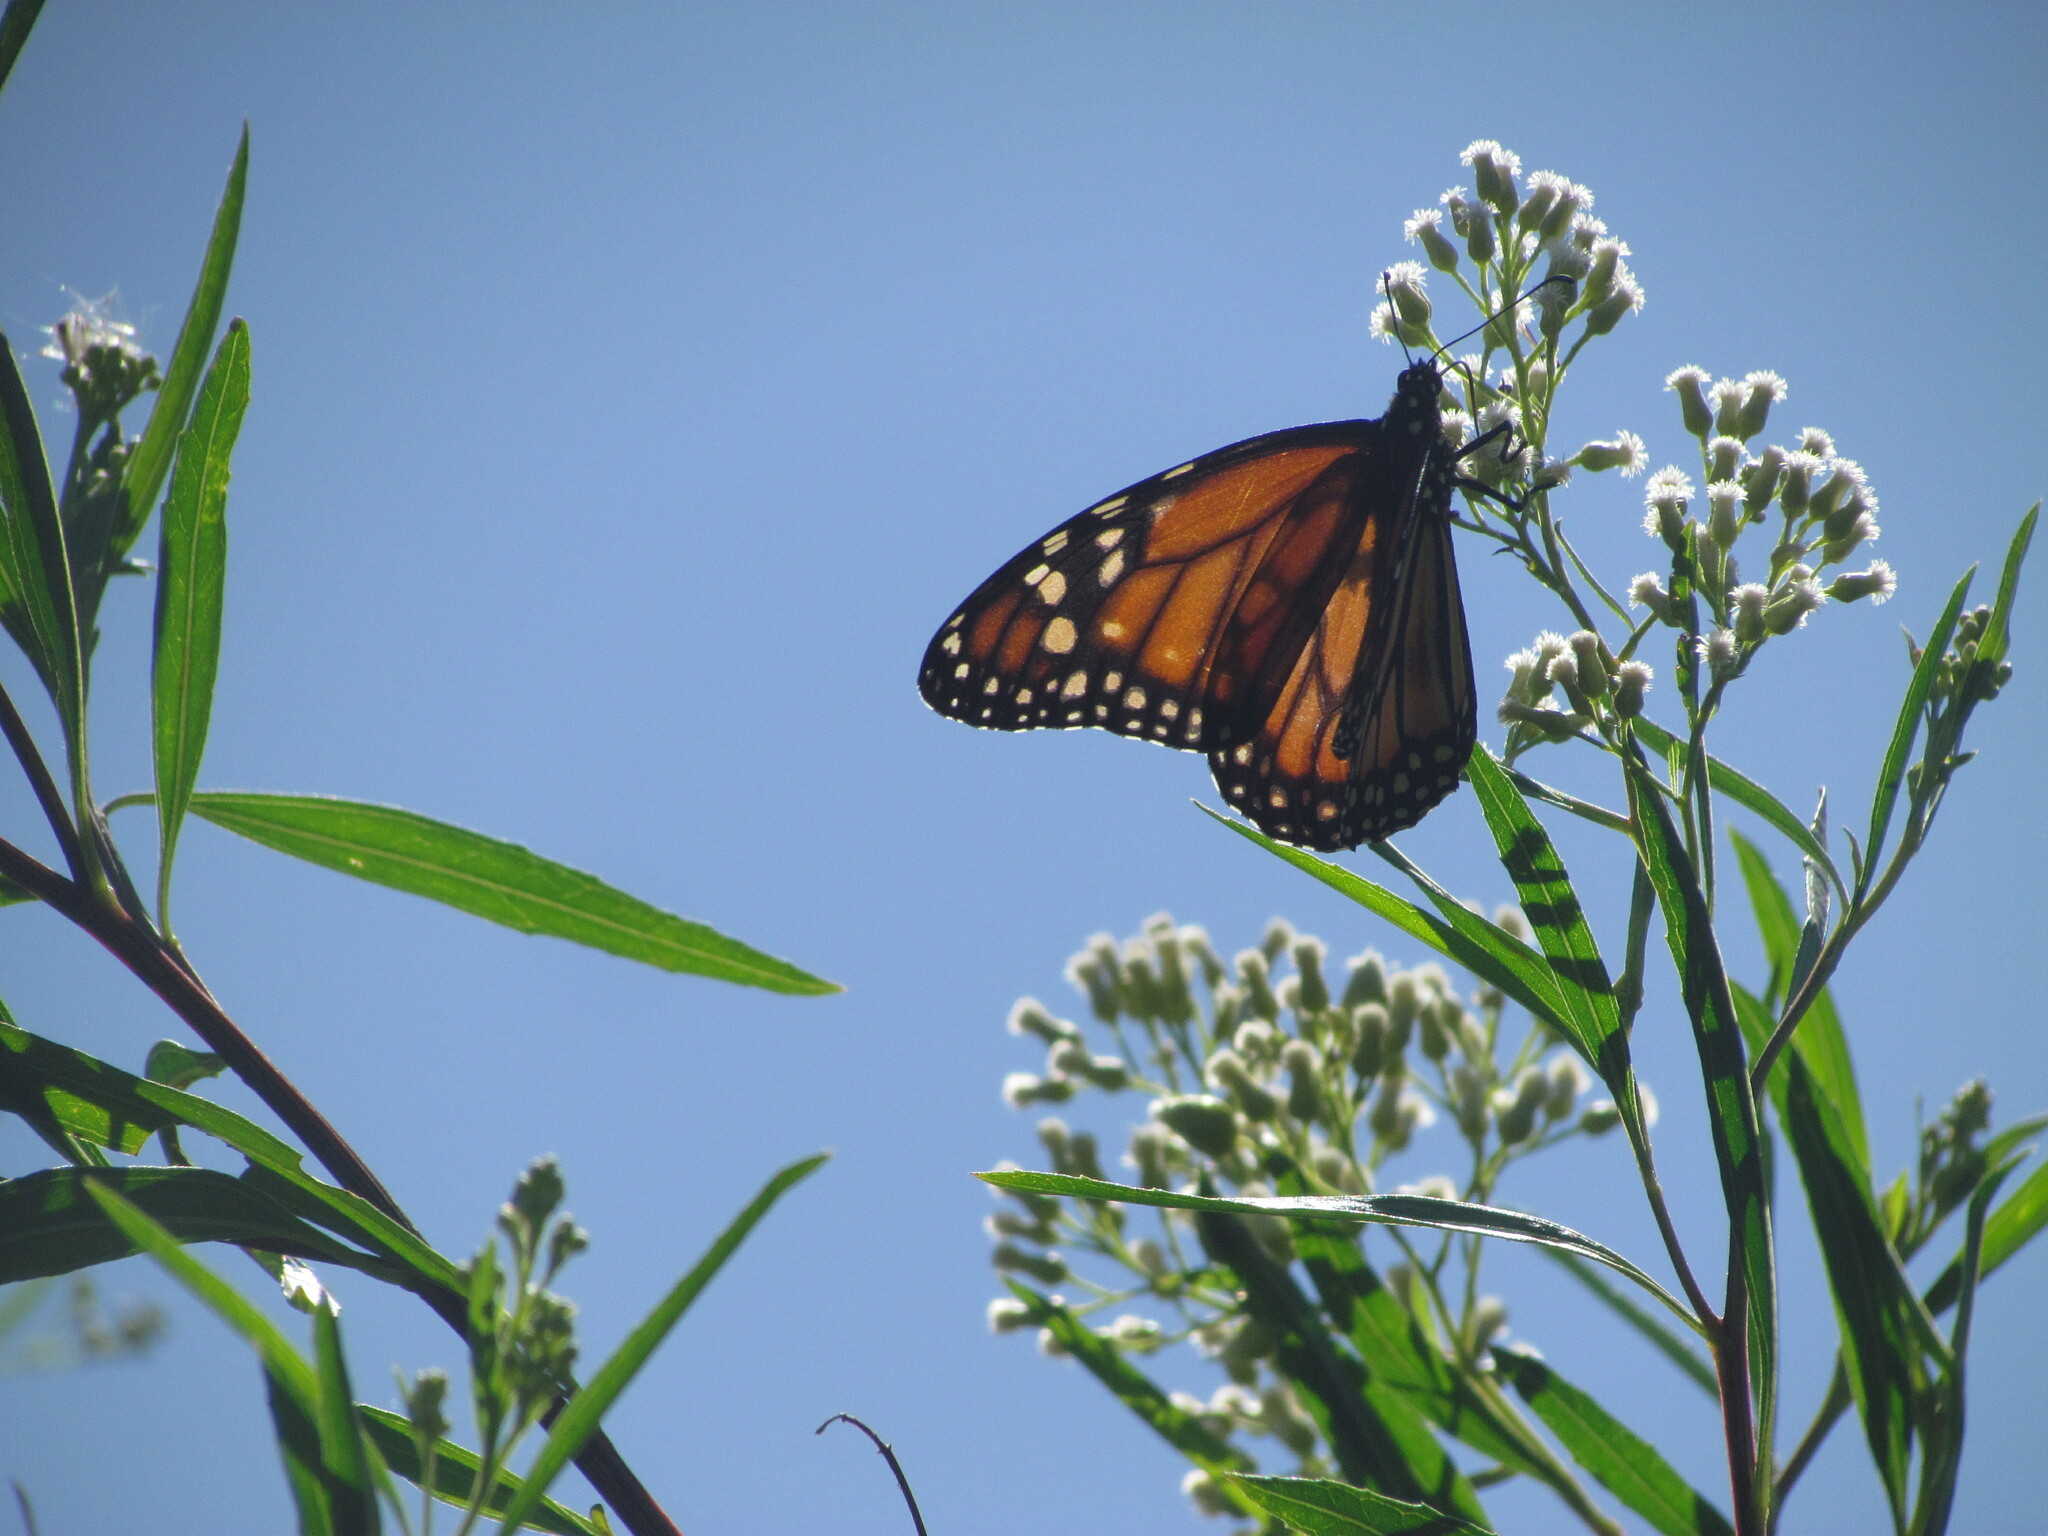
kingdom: Animalia
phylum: Arthropoda
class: Insecta
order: Lepidoptera
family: Nymphalidae
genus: Danaus
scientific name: Danaus erippus
